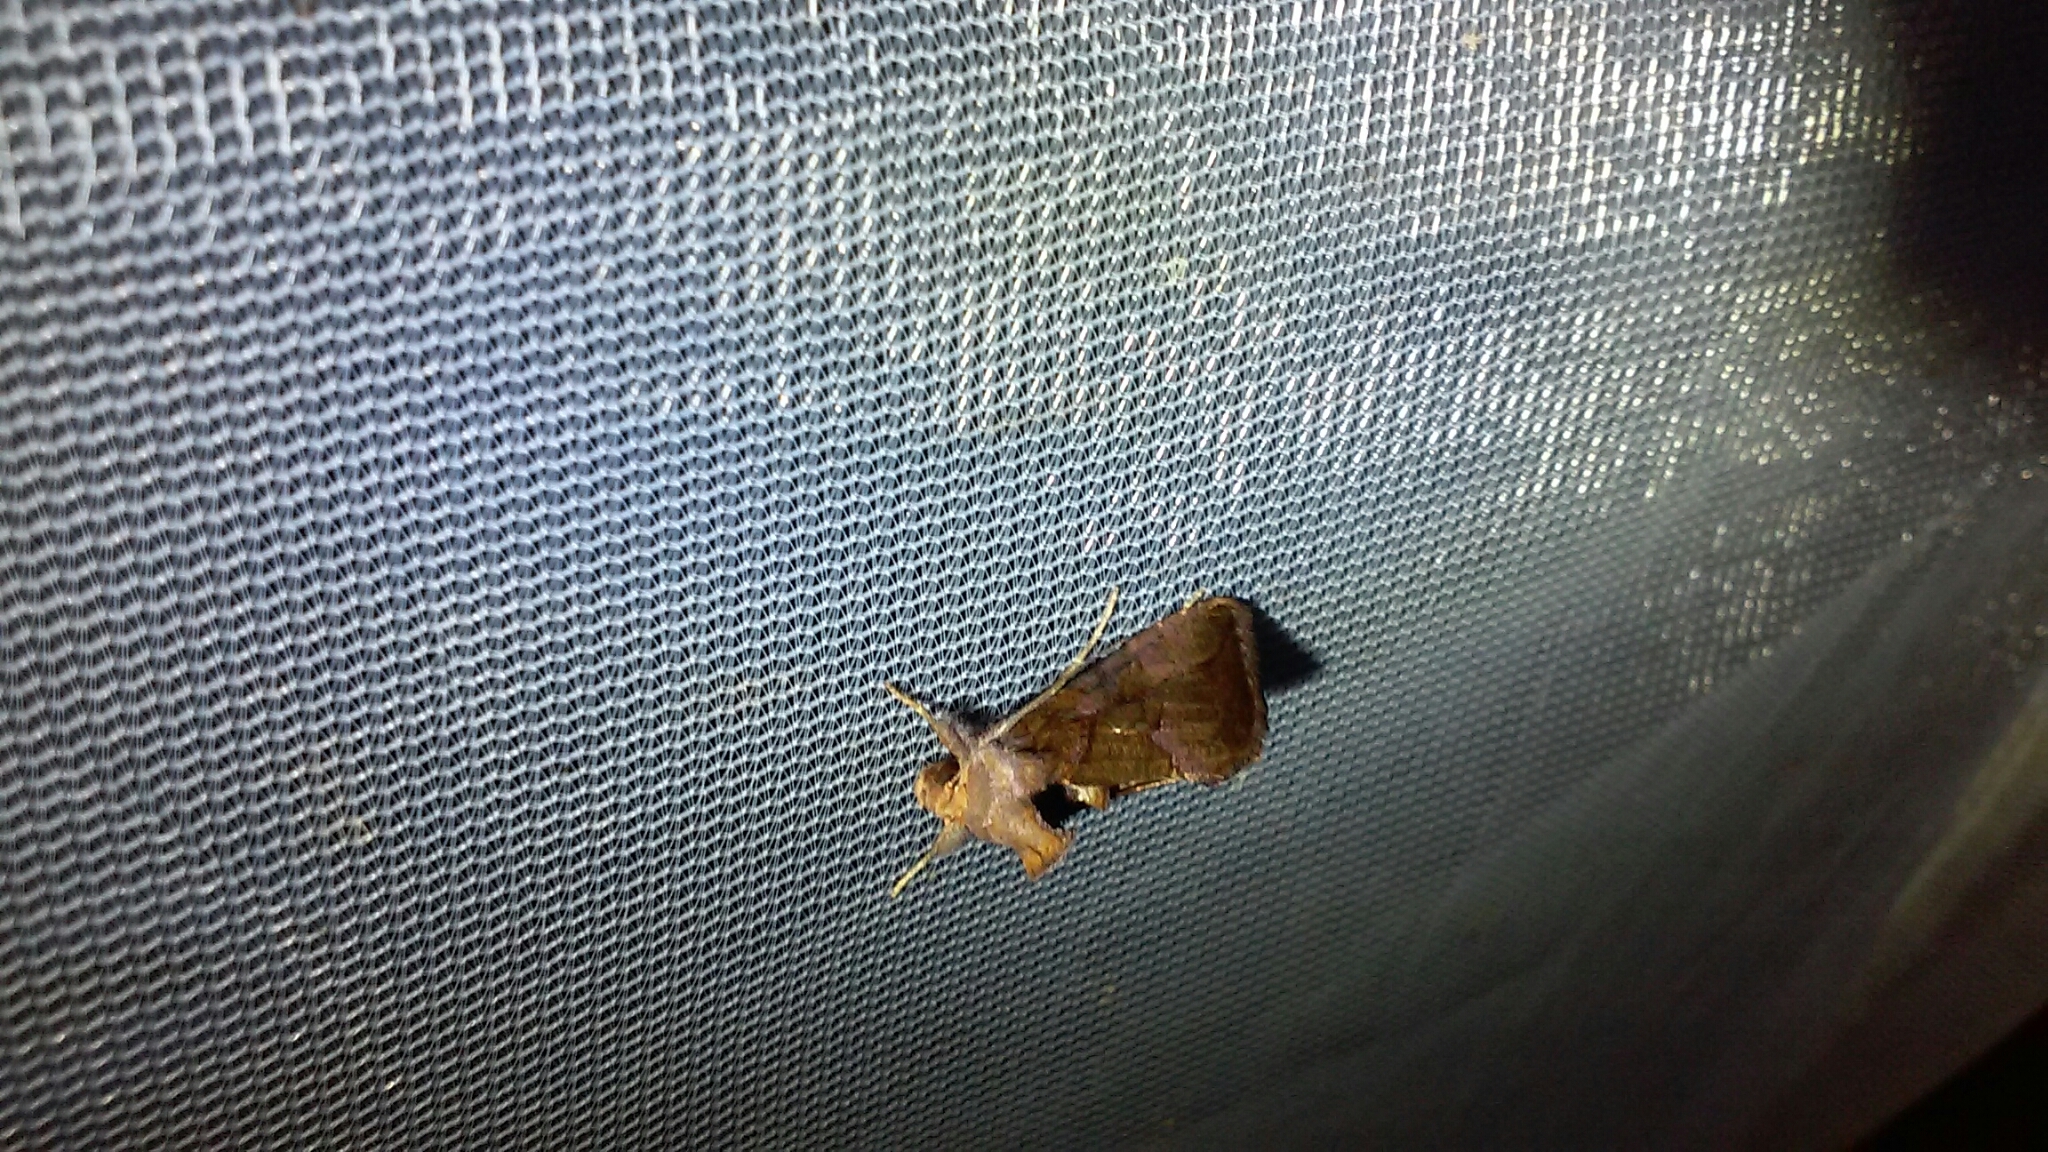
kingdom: Animalia
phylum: Arthropoda
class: Insecta
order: Lepidoptera
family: Noctuidae
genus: Argyrogramma
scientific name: Argyrogramma verruca
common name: Golden looper moth
